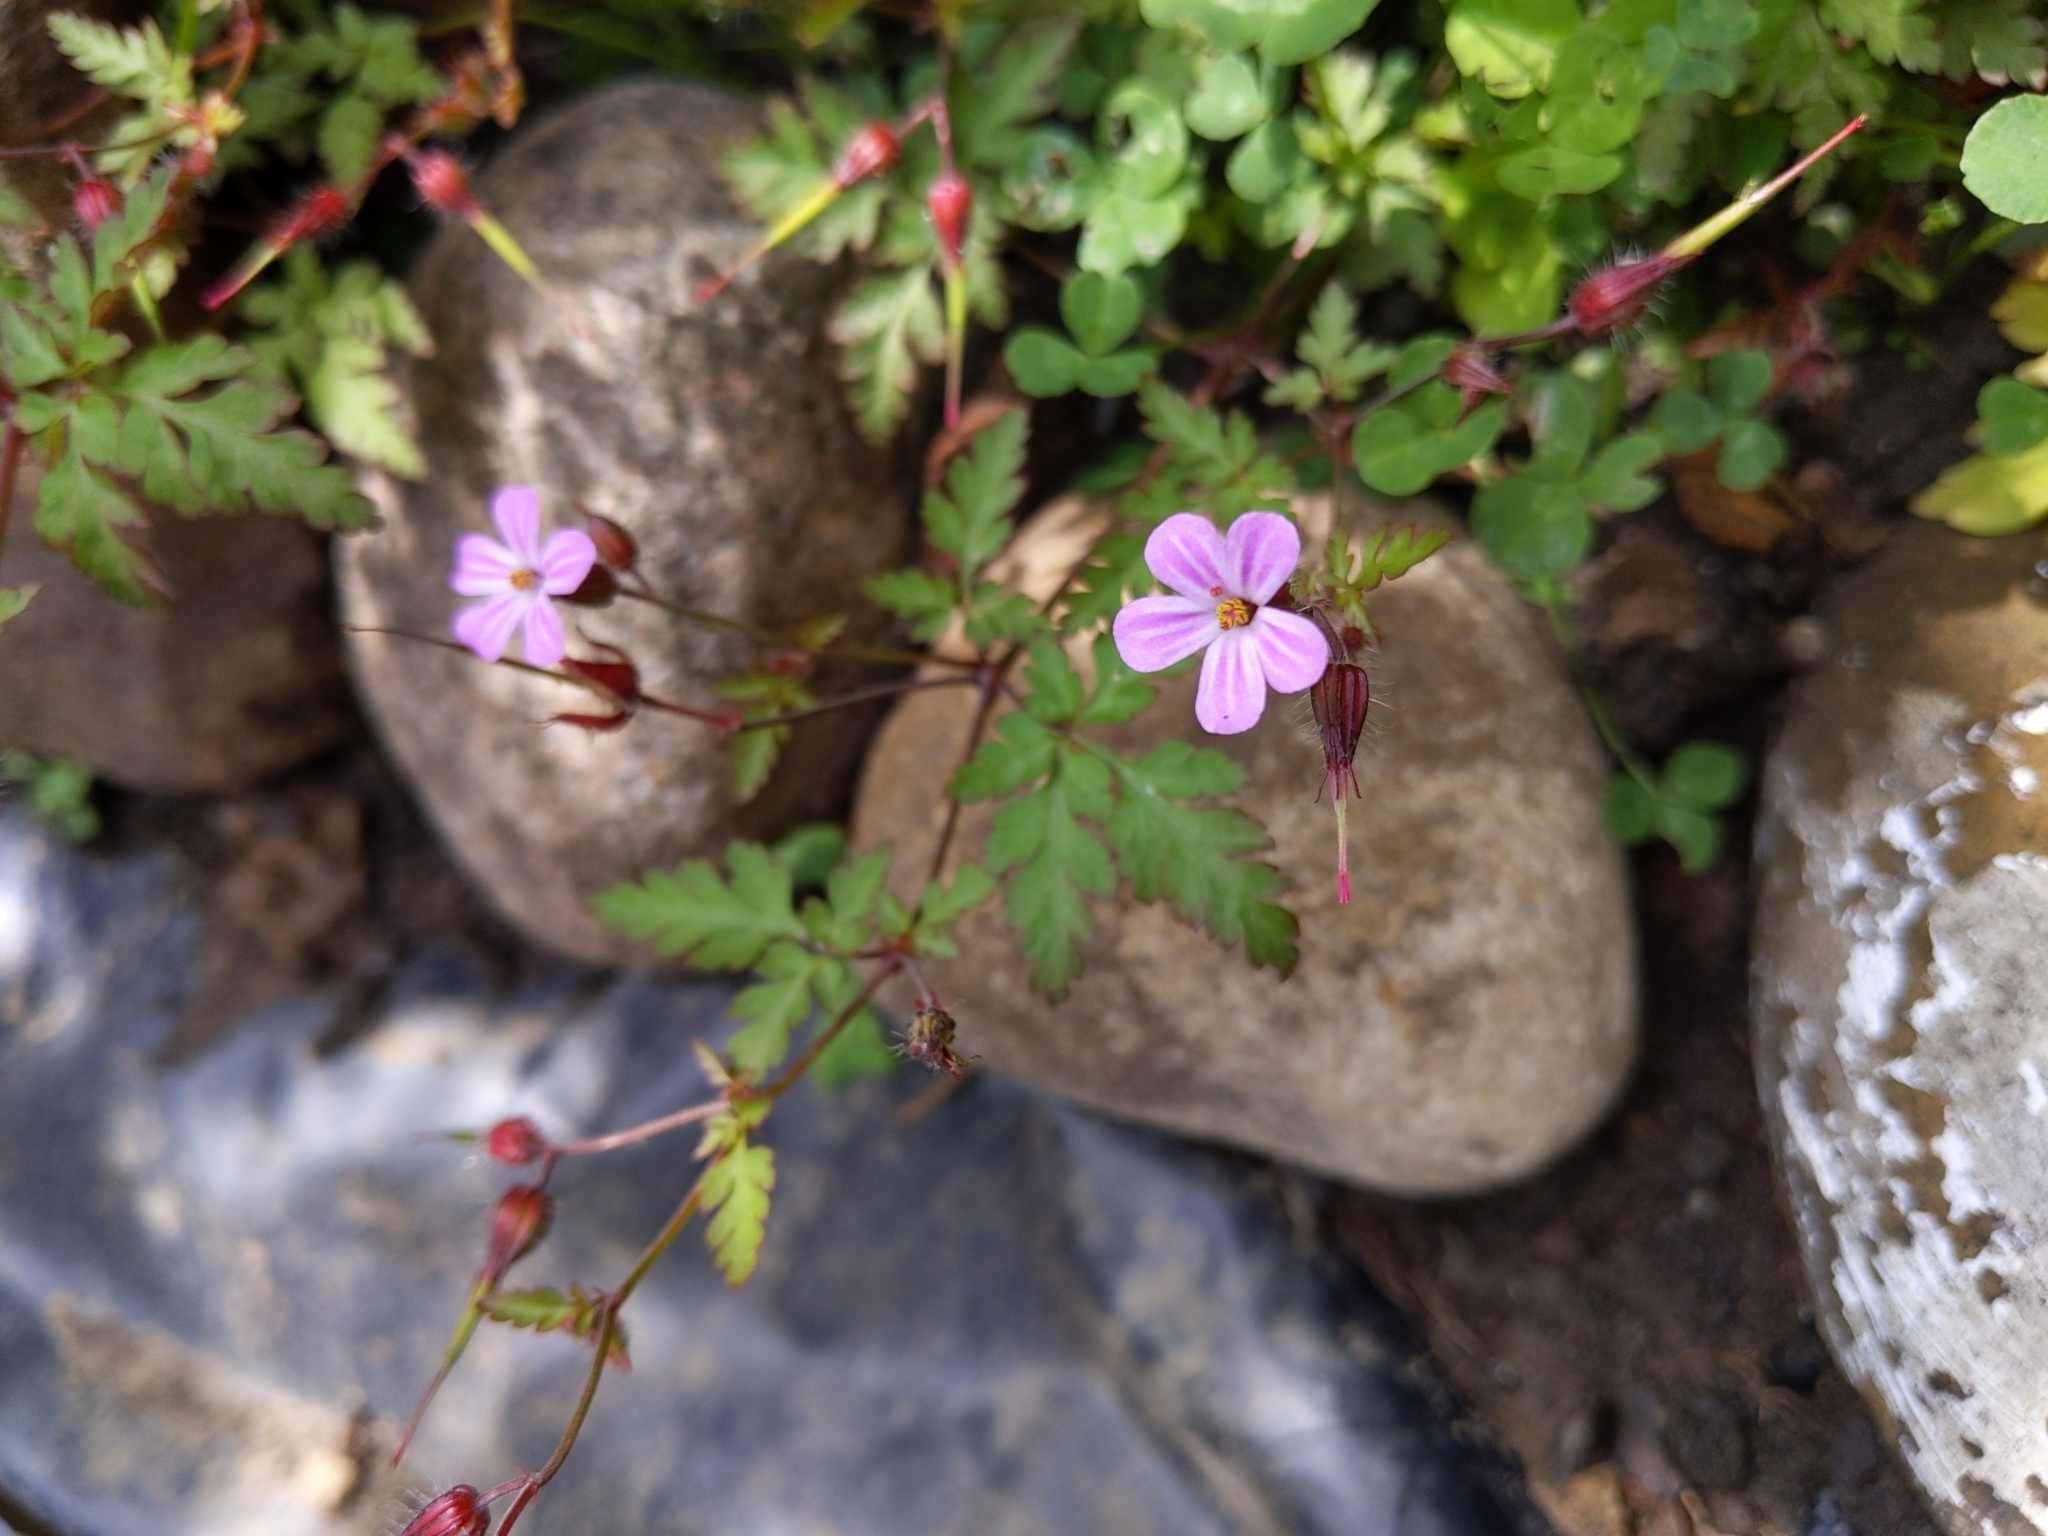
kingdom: Plantae
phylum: Tracheophyta
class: Magnoliopsida
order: Geraniales
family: Geraniaceae
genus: Geranium
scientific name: Geranium robertianum
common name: Herb-robert
